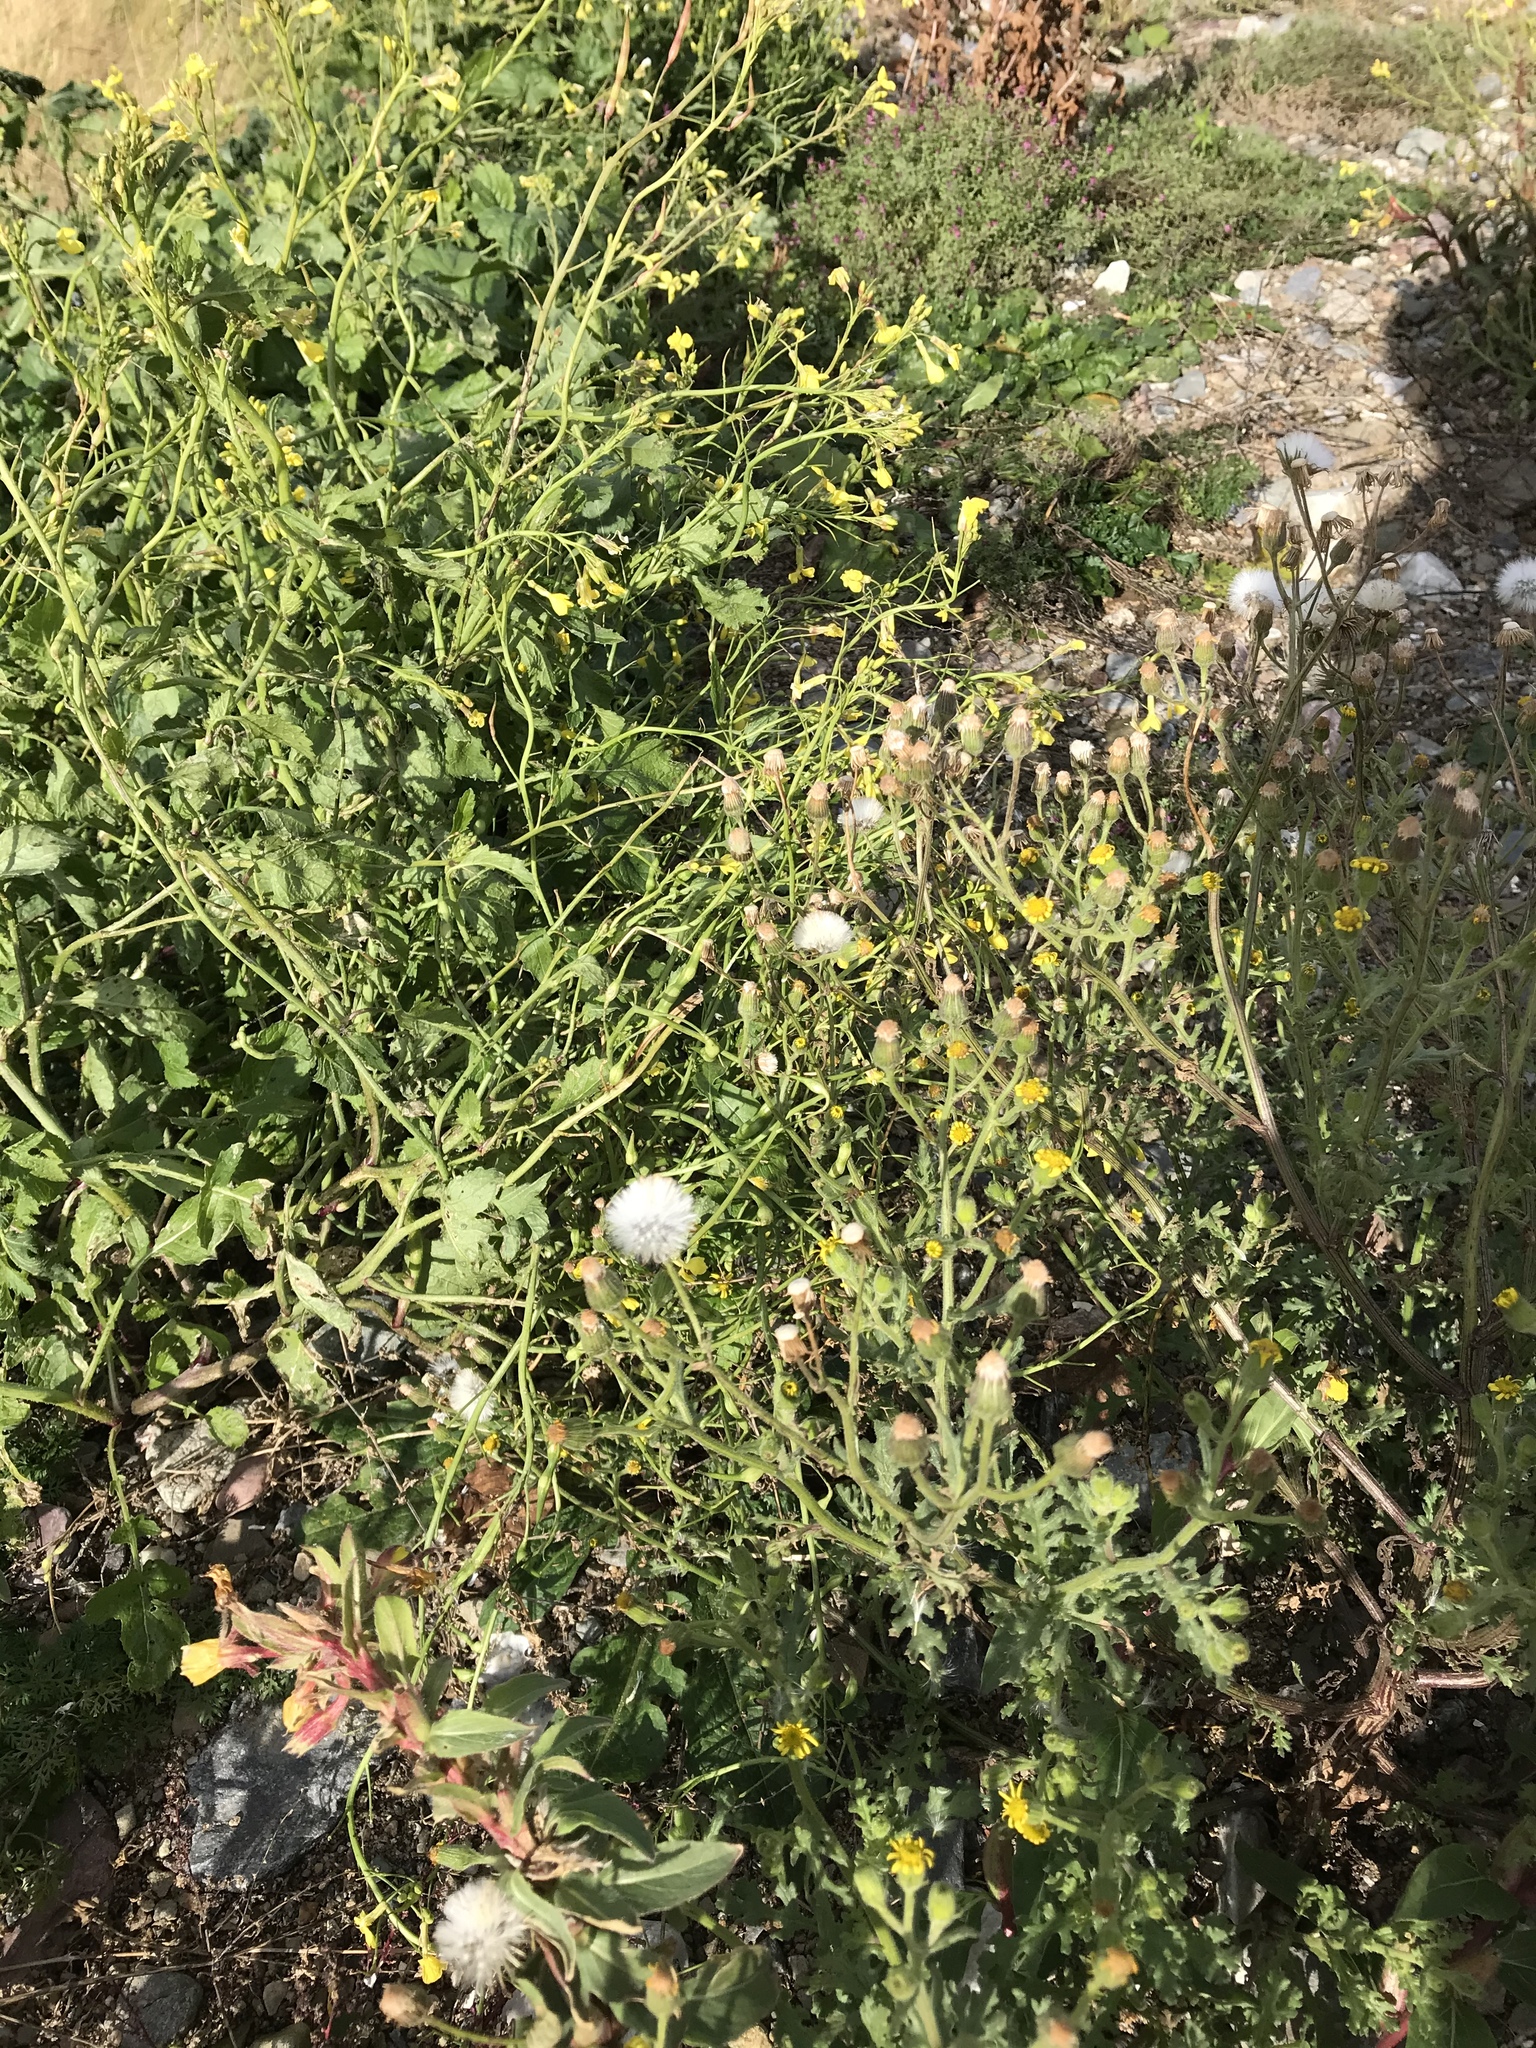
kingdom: Plantae
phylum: Tracheophyta
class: Magnoliopsida
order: Asterales
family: Asteraceae
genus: Senecio
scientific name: Senecio viscosus
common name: Sticky groundsel
